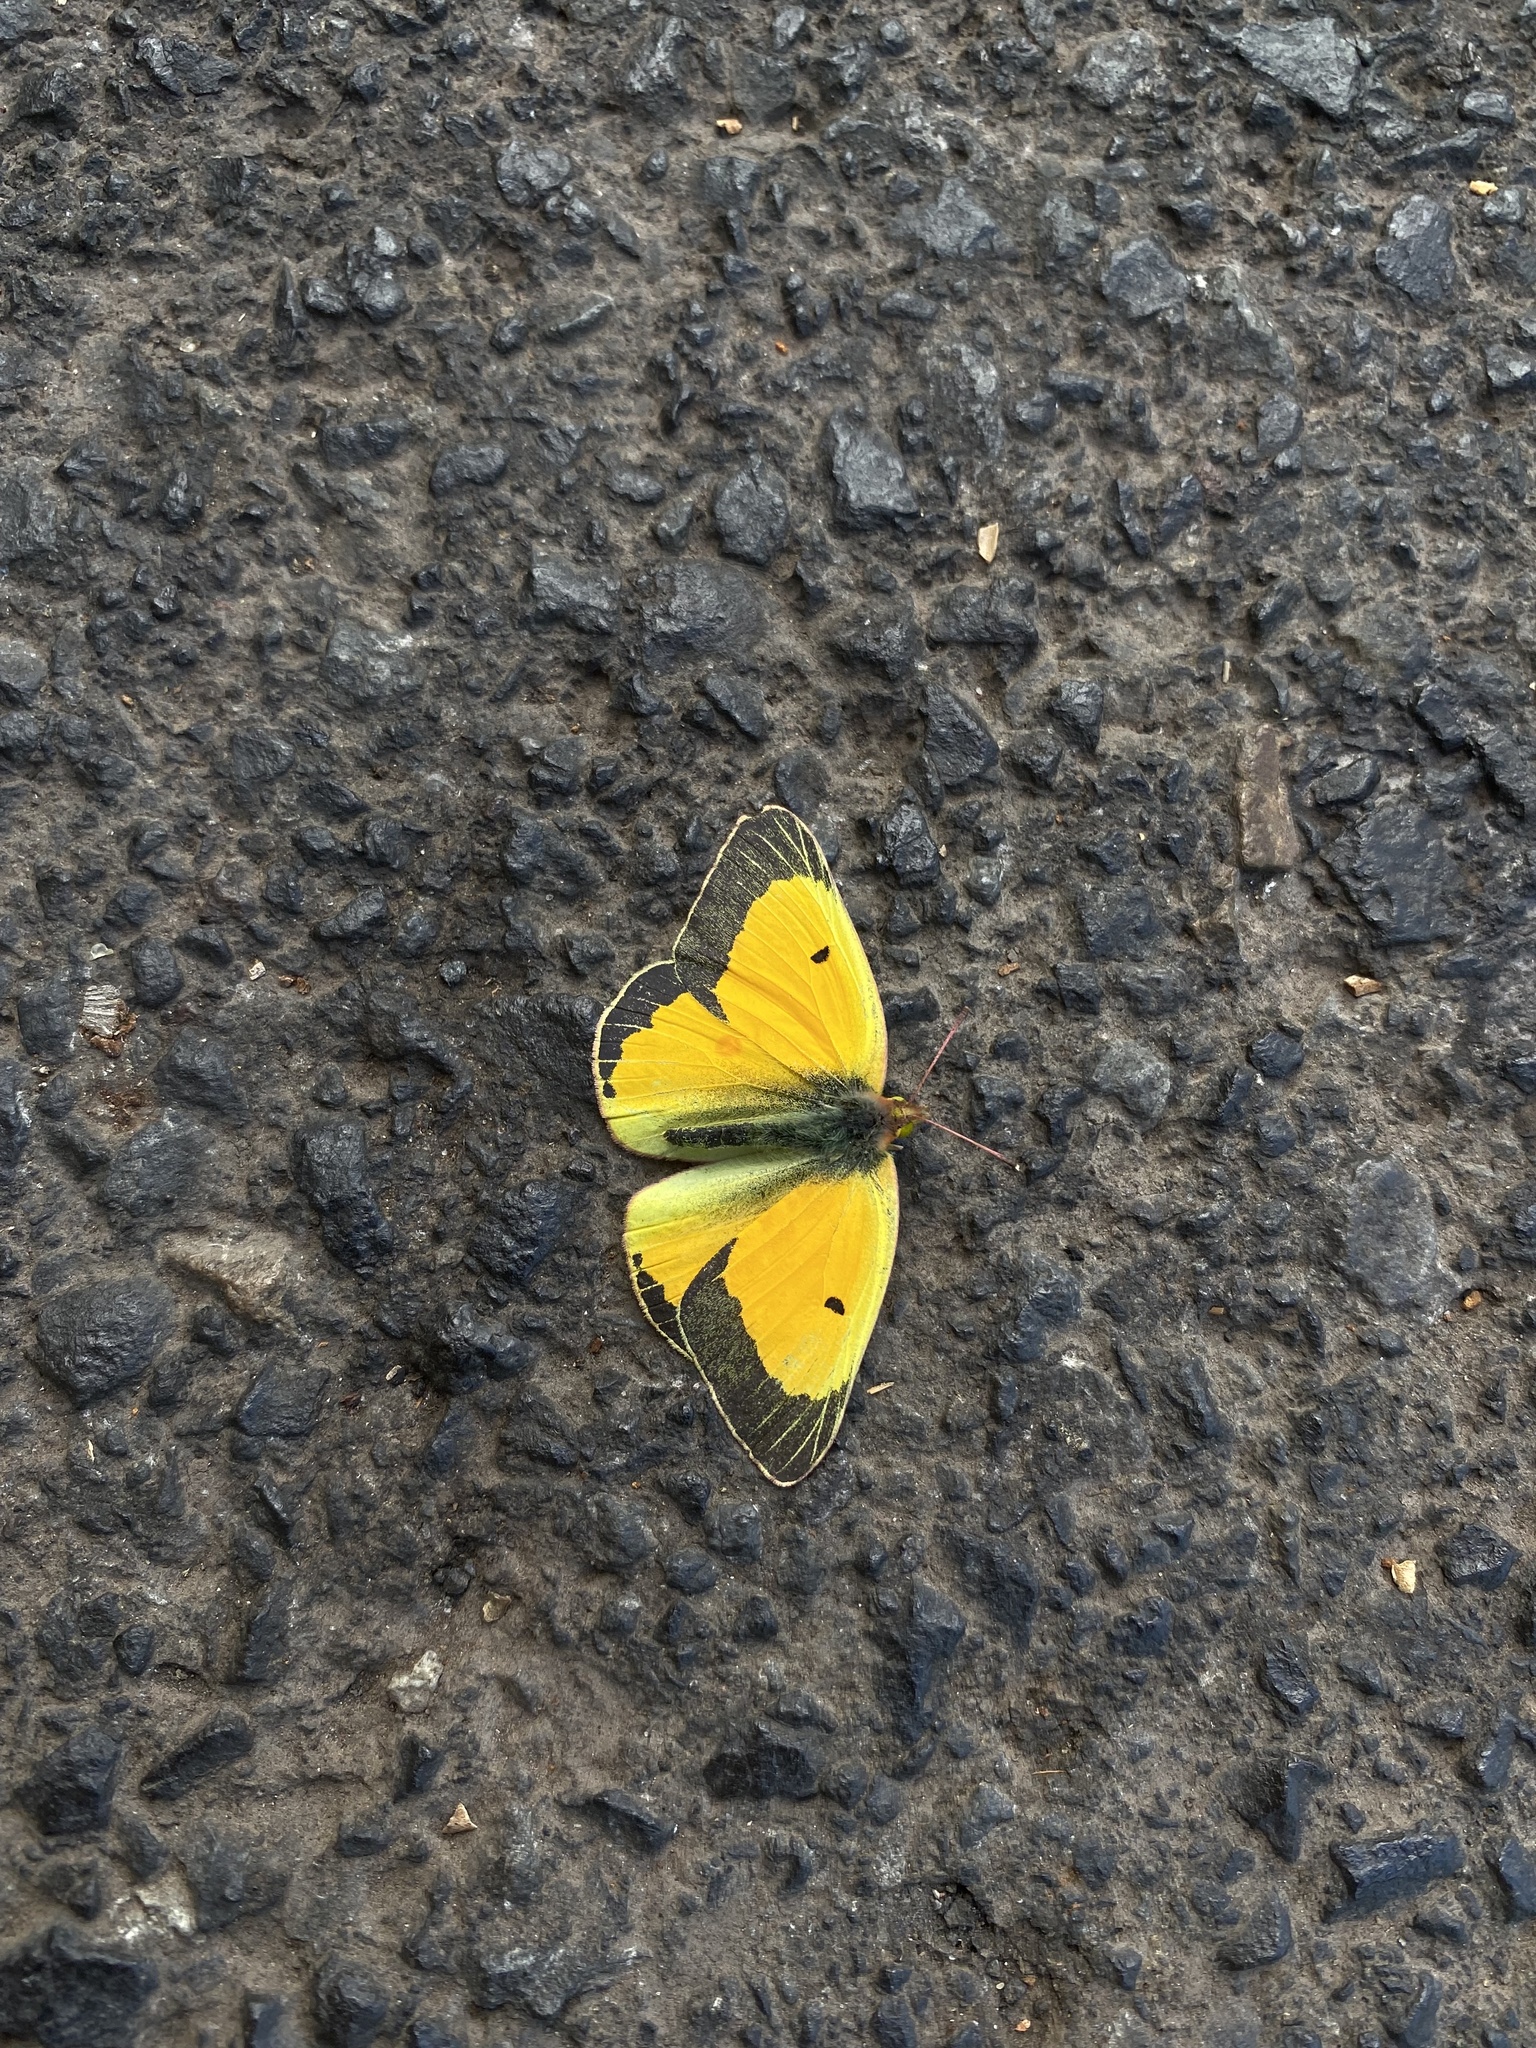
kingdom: Animalia
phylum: Arthropoda
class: Insecta
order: Lepidoptera
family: Pieridae
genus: Colias
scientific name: Colias eurytheme
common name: Alfalfa butterfly
